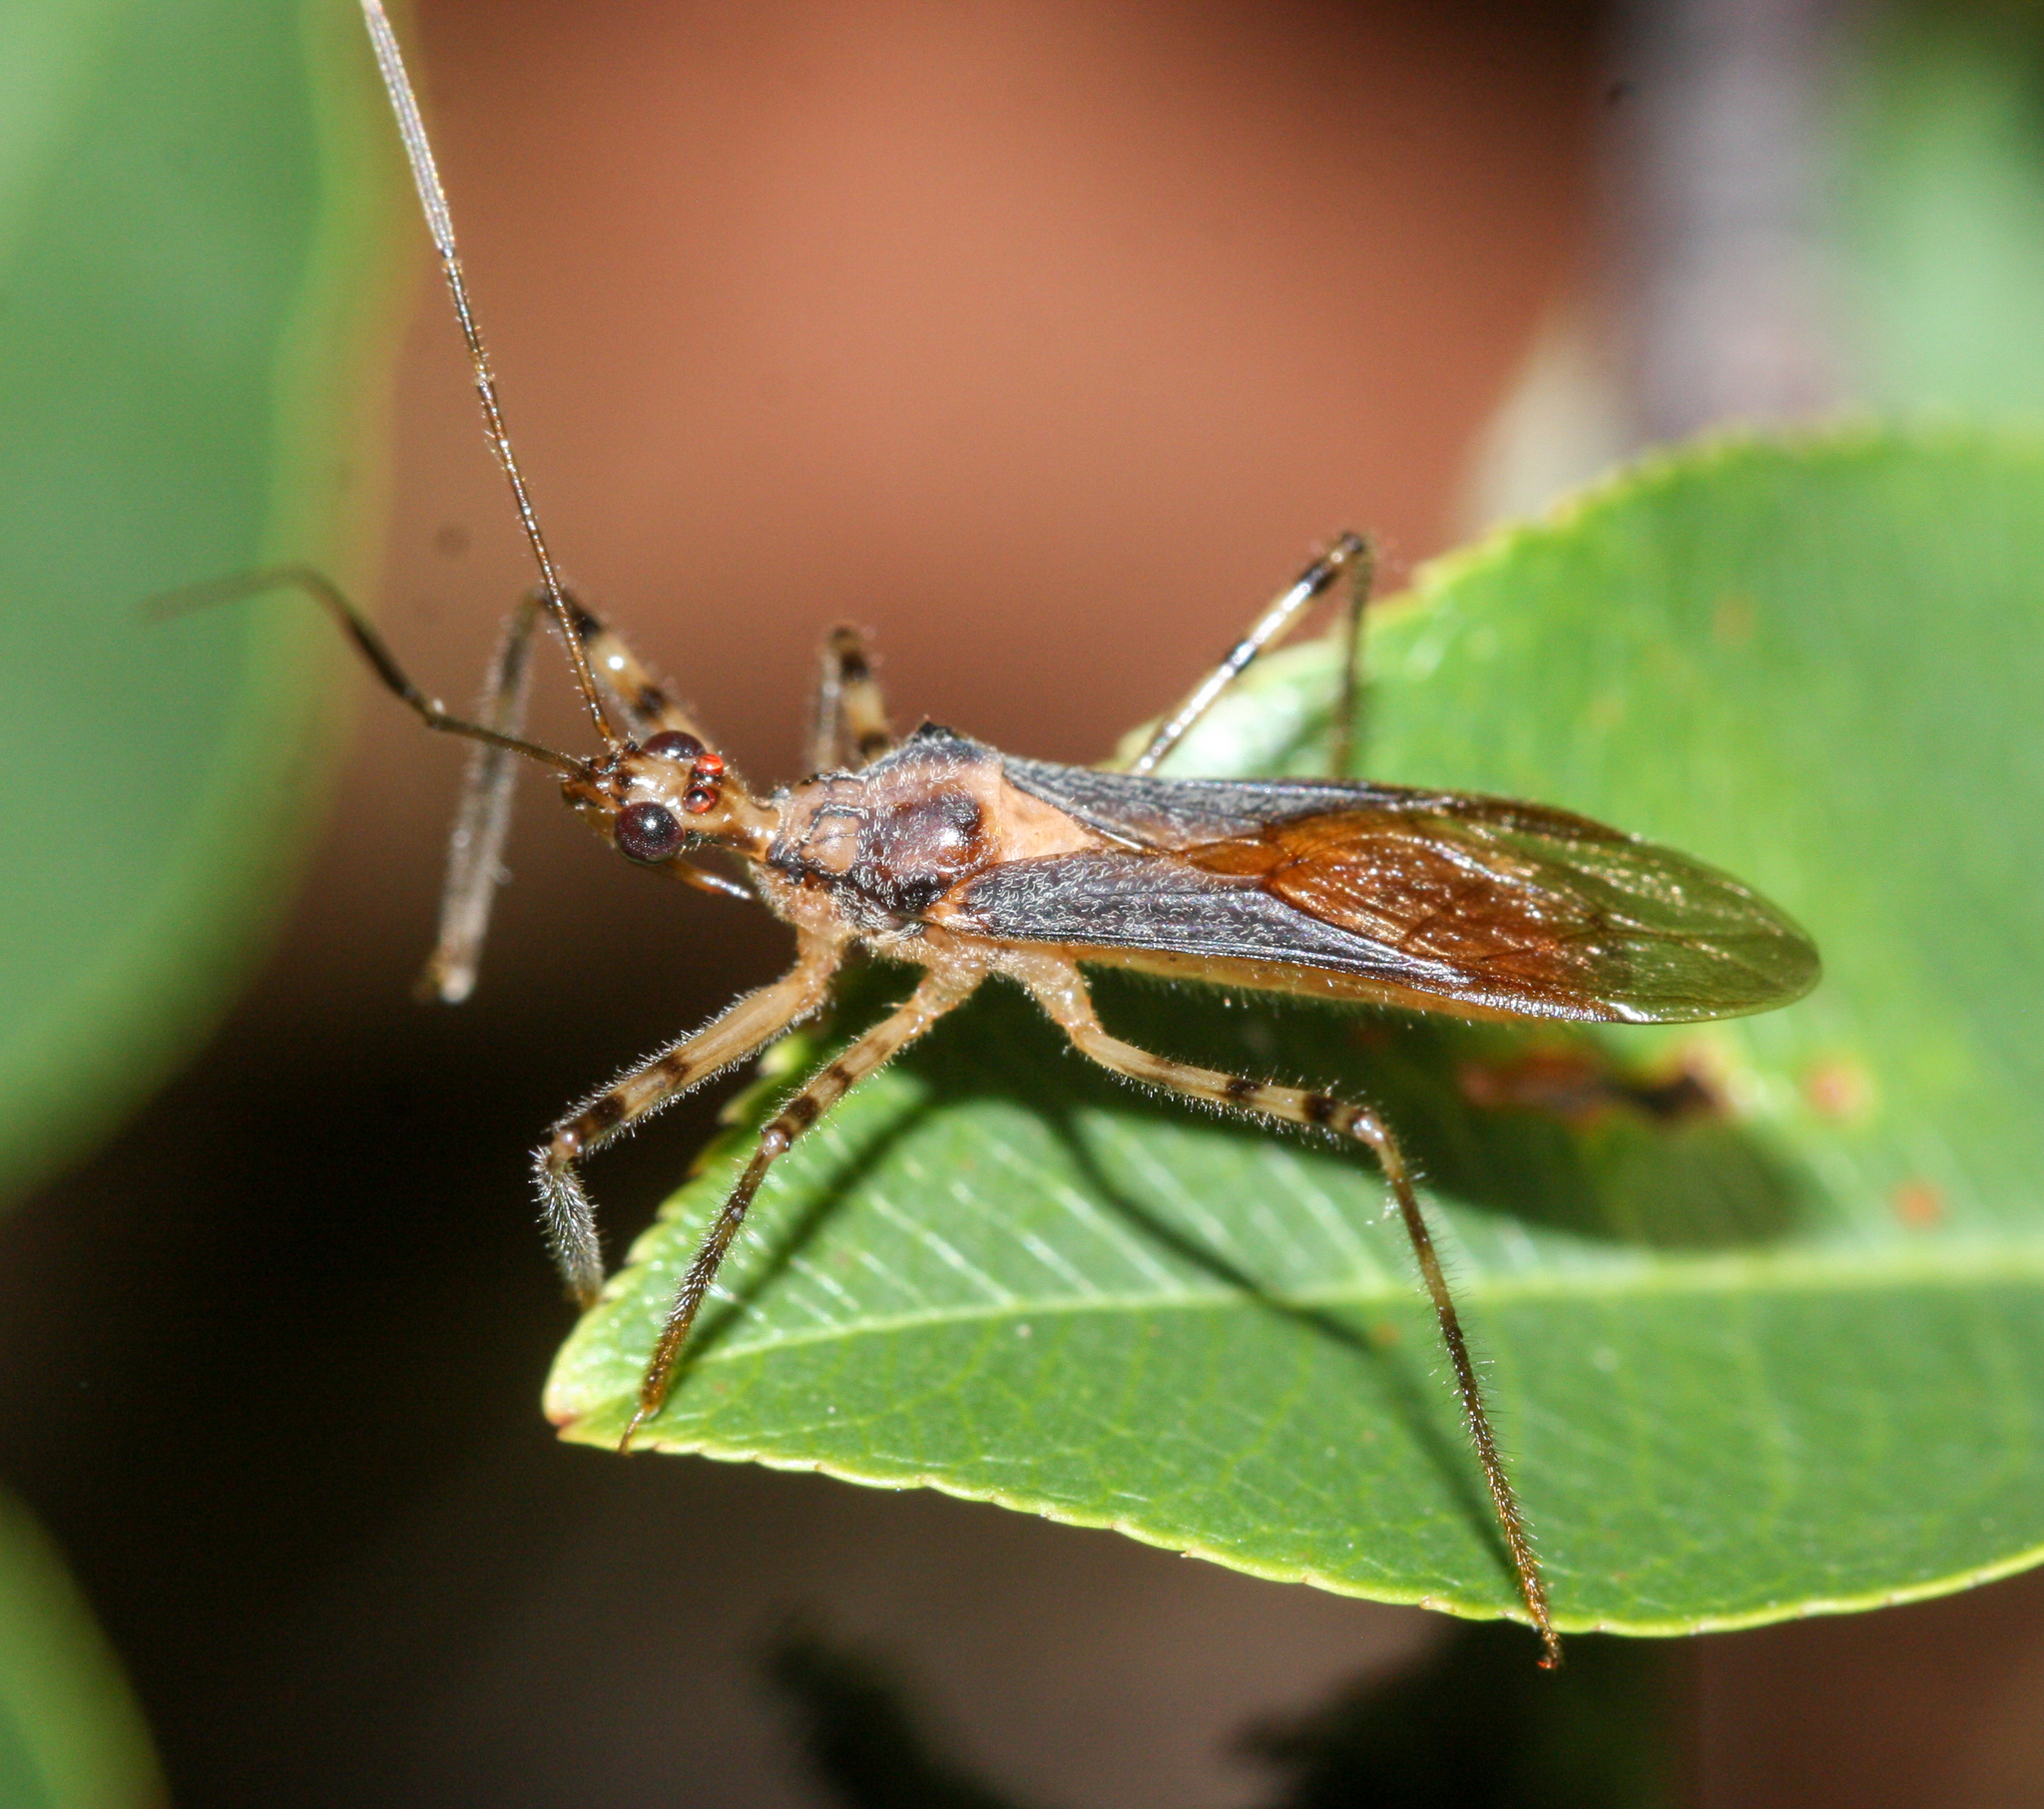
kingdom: Animalia
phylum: Arthropoda
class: Insecta
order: Hemiptera
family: Reduviidae
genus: Castolus
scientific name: Castolus ferox
